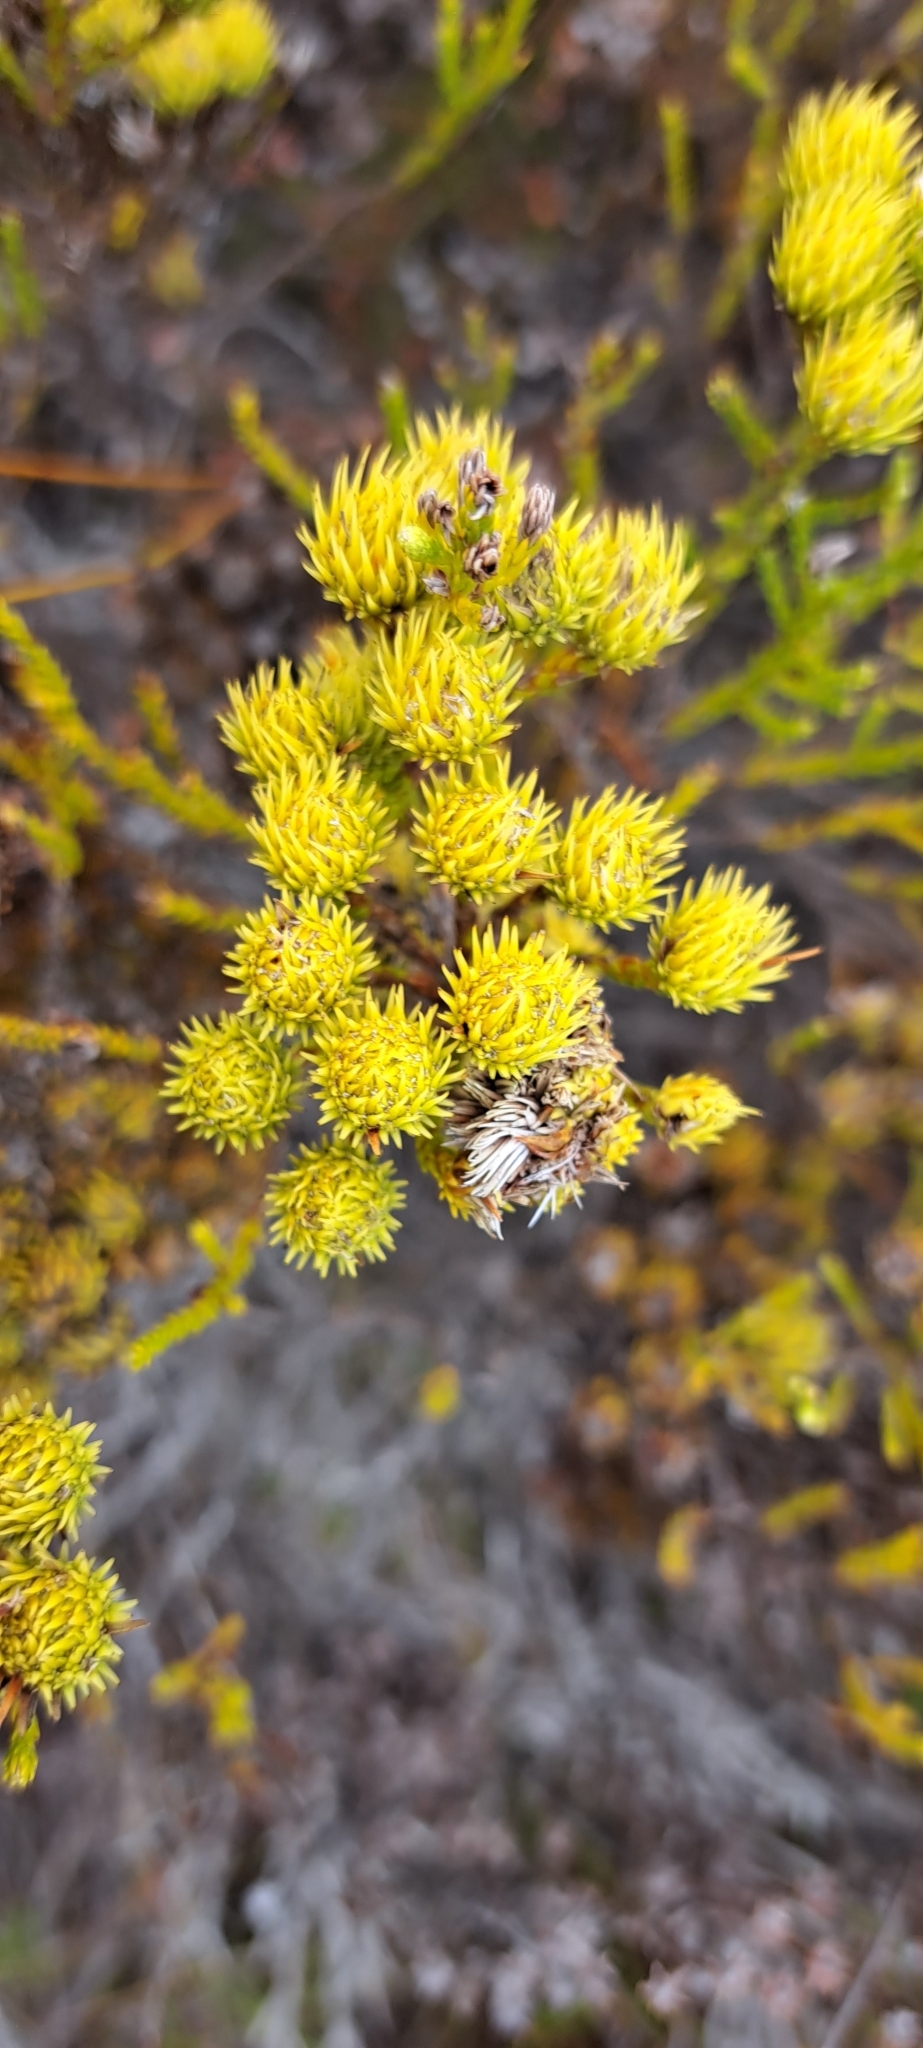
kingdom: Plantae
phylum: Tracheophyta
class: Magnoliopsida
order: Bruniales
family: Bruniaceae
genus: Brunia
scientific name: Brunia paleacea
